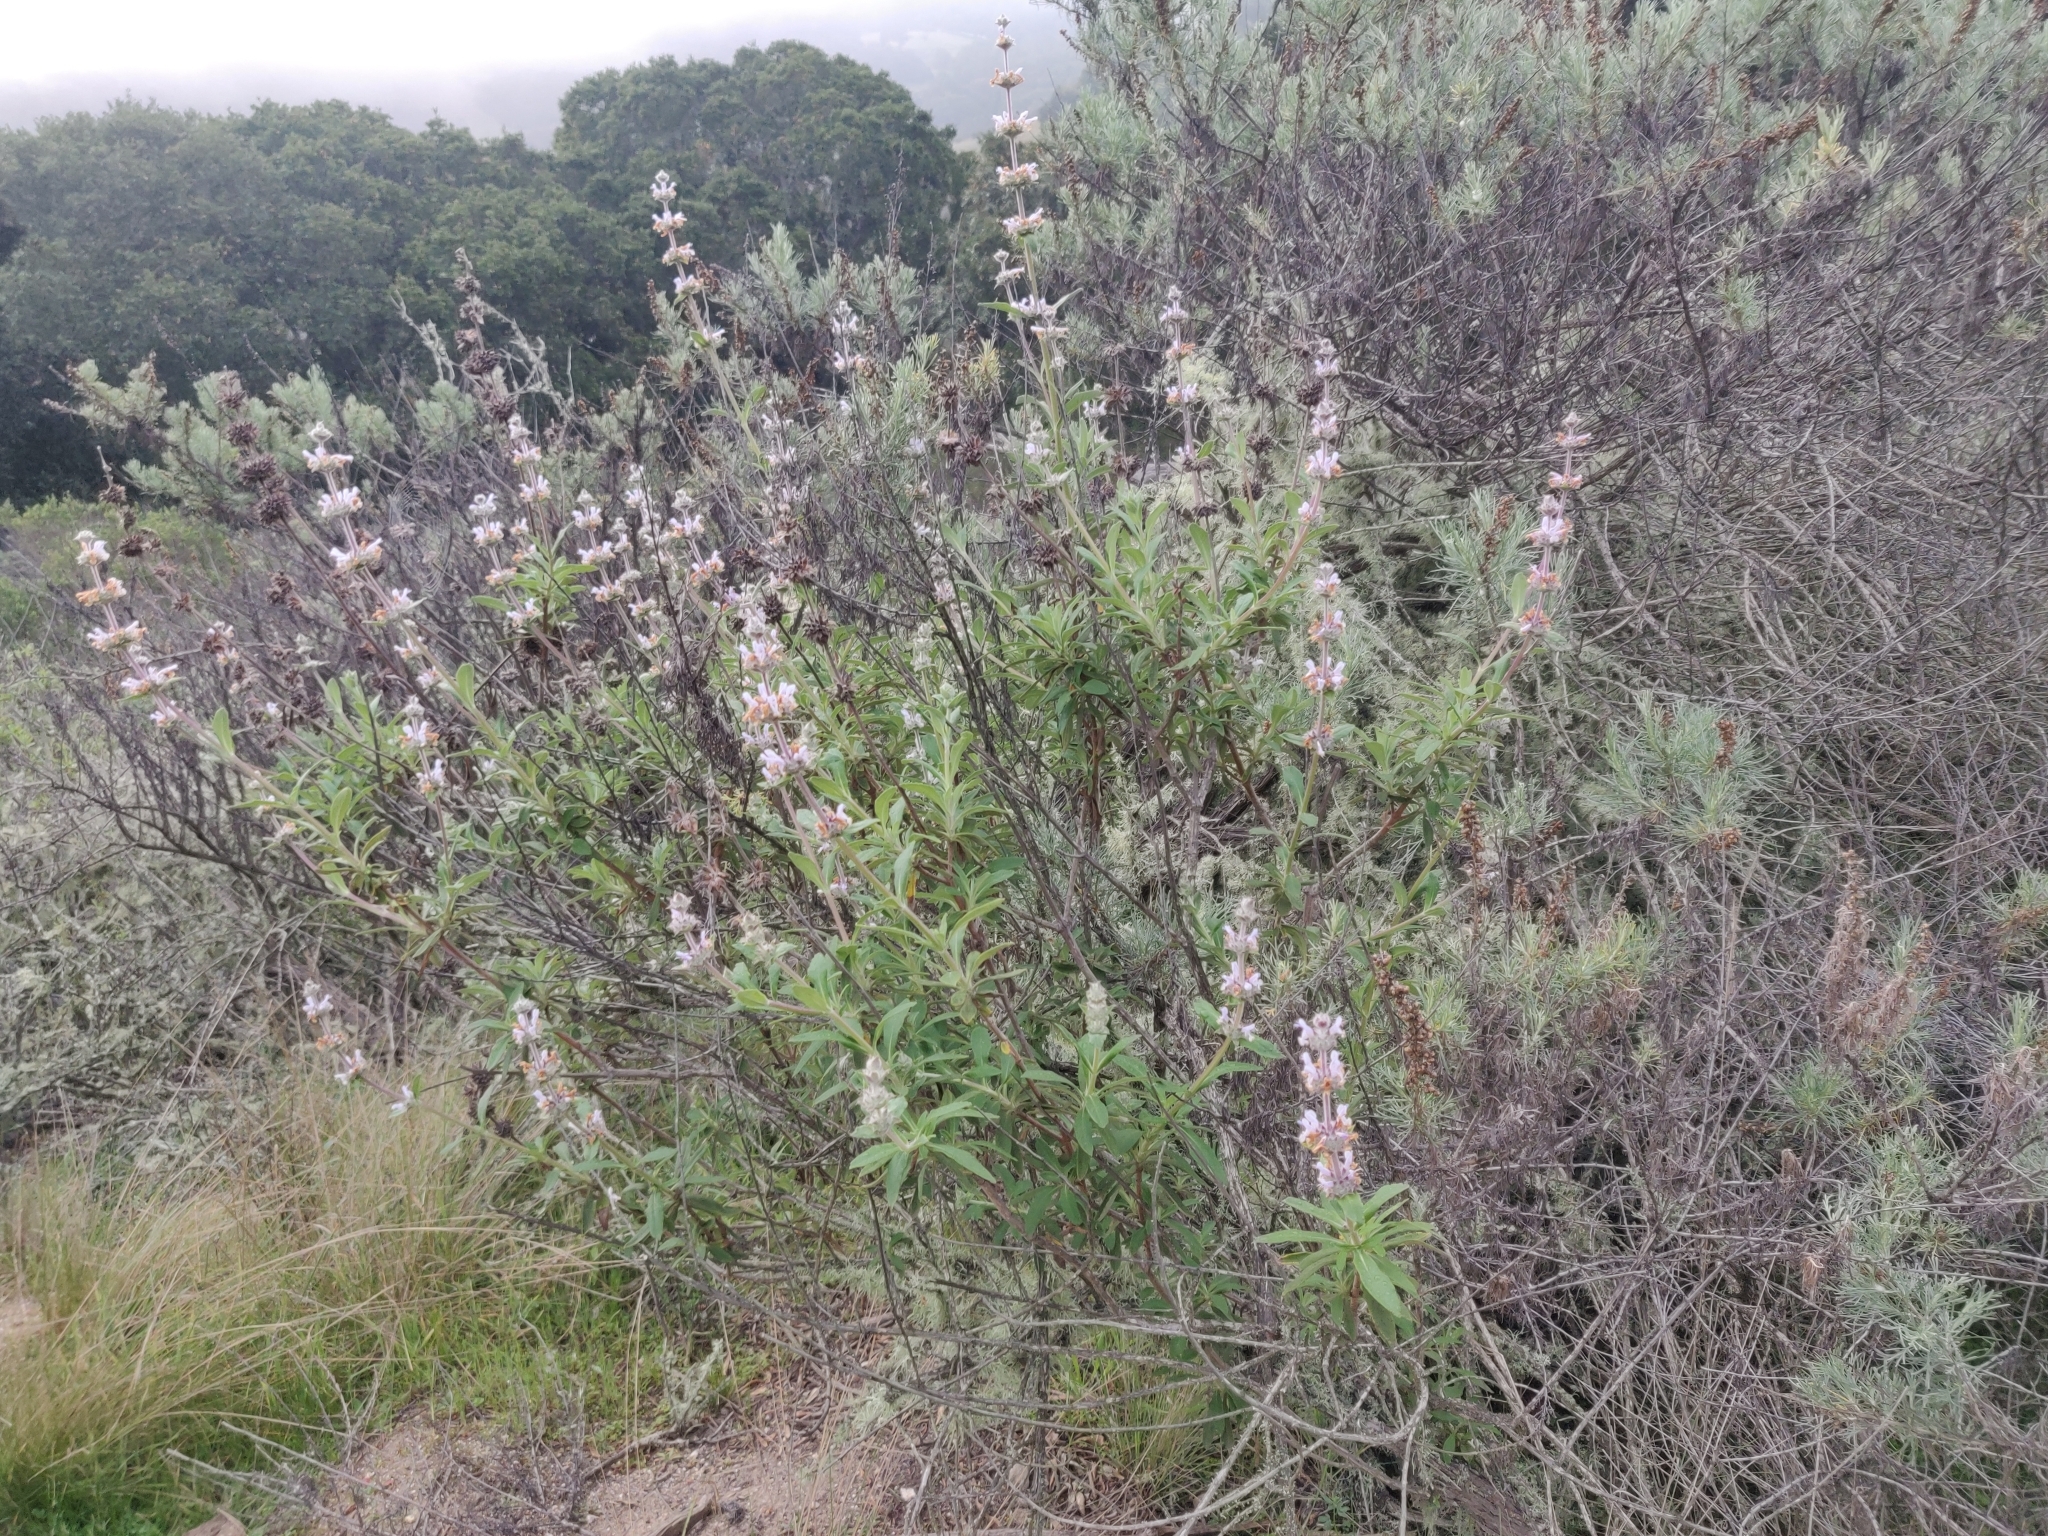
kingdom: Plantae
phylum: Tracheophyta
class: Magnoliopsida
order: Lamiales
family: Lamiaceae
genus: Salvia
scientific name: Salvia mellifera
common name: Black sage
